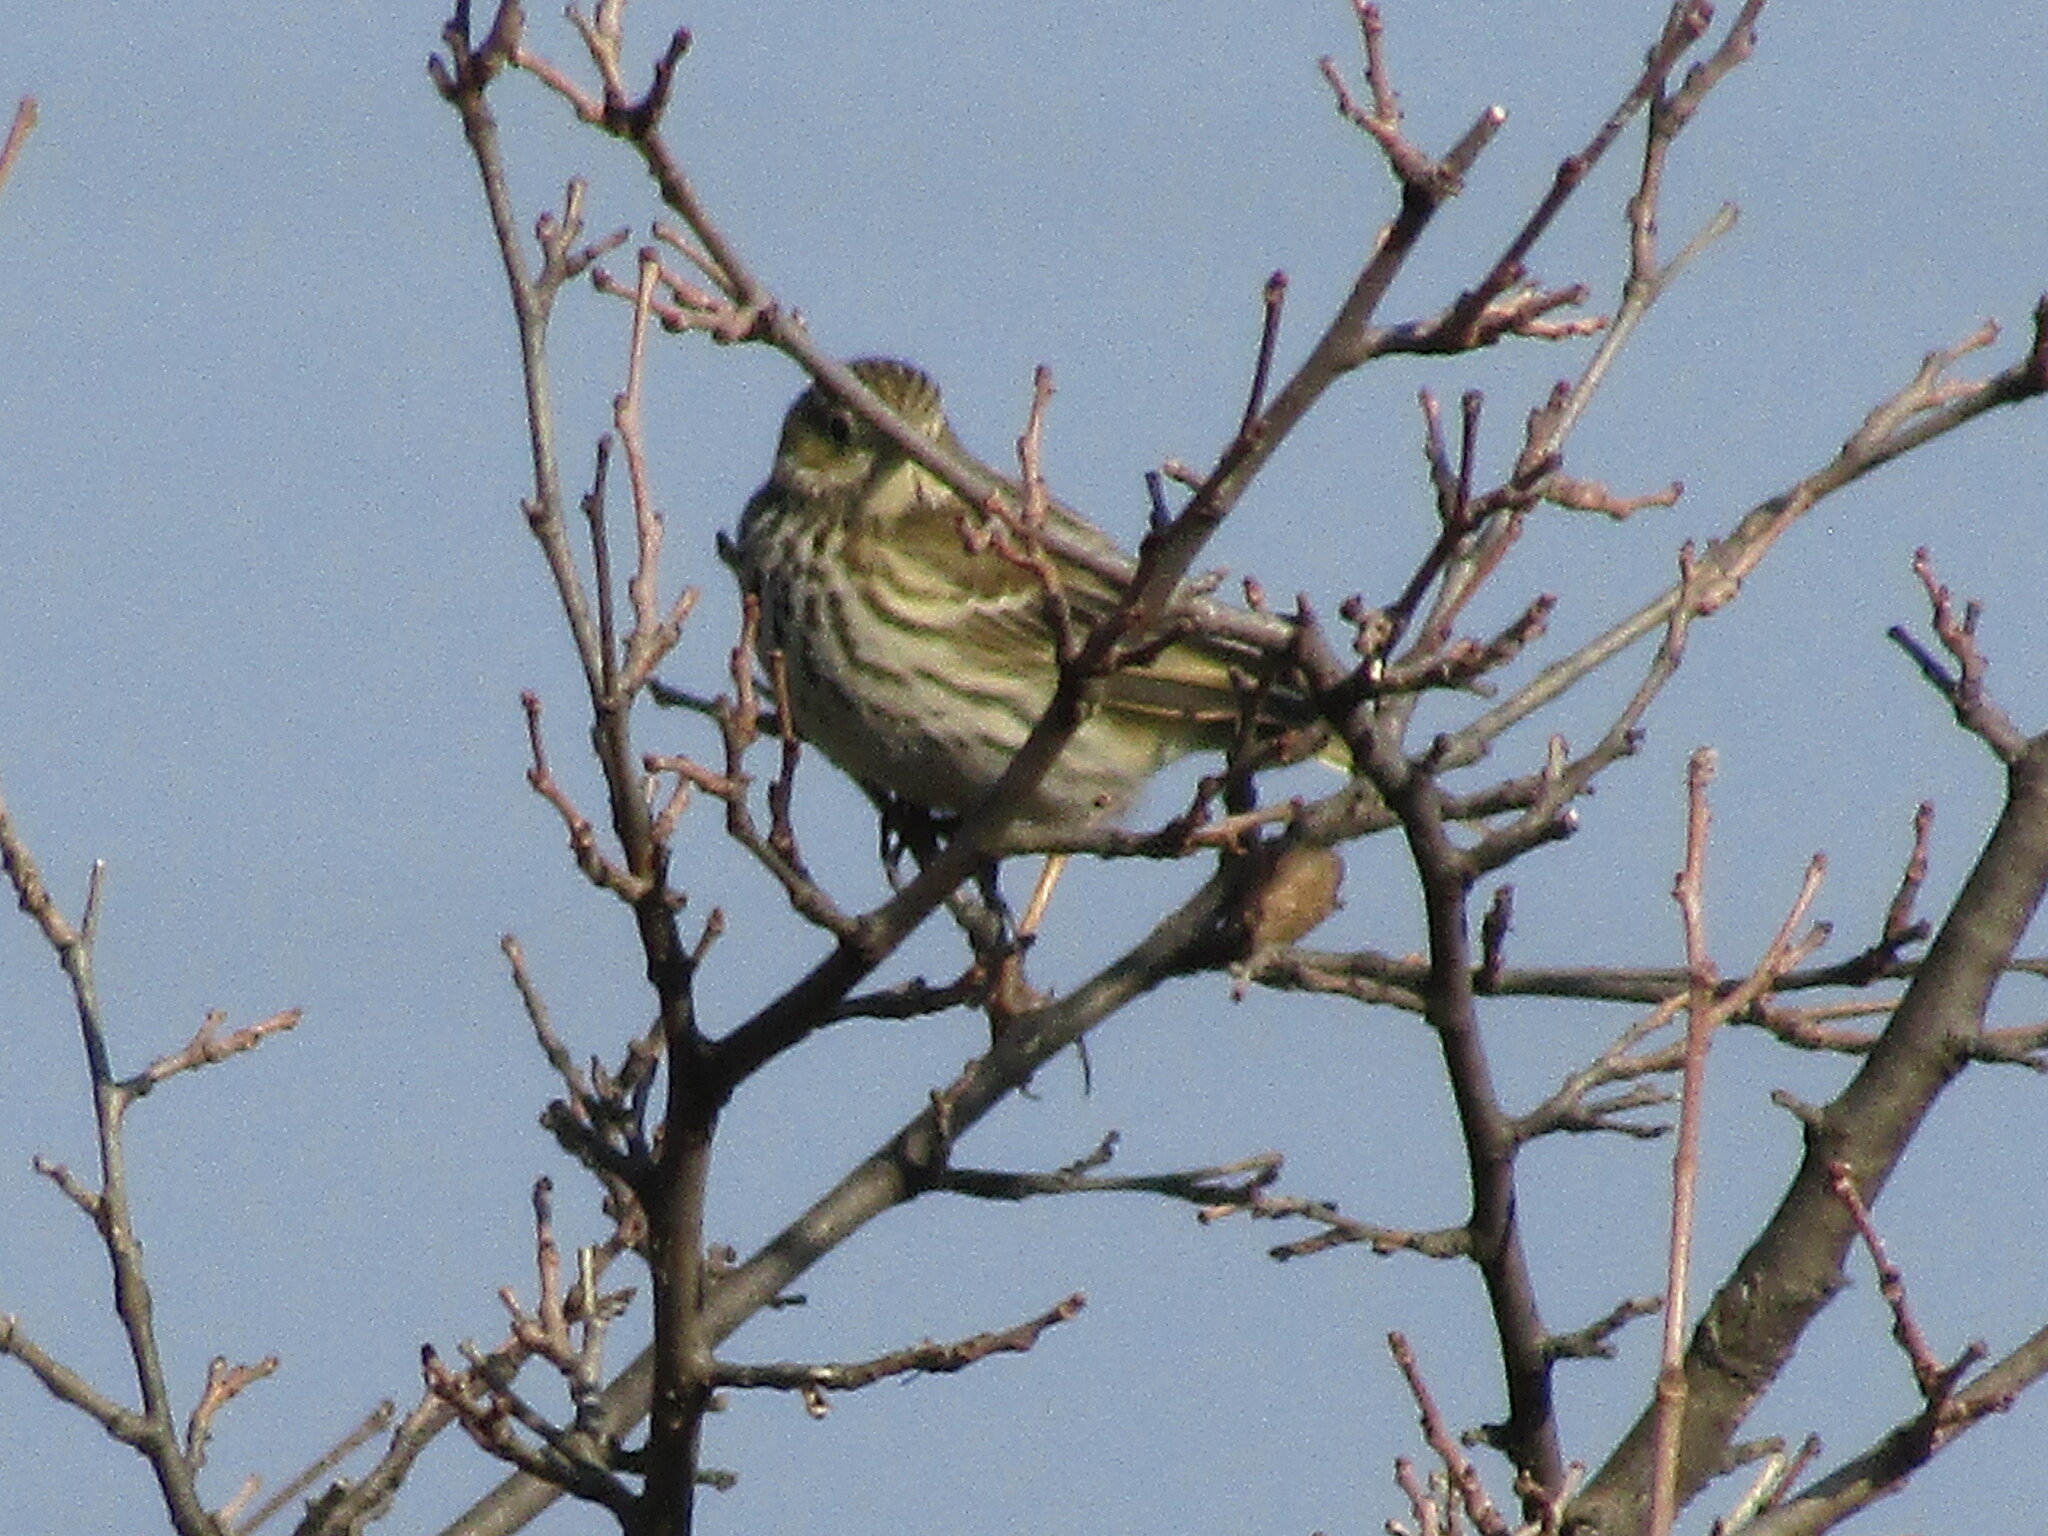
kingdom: Animalia
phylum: Chordata
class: Aves
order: Passeriformes
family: Motacillidae
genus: Anthus
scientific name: Anthus pratensis
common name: Meadow pipit
